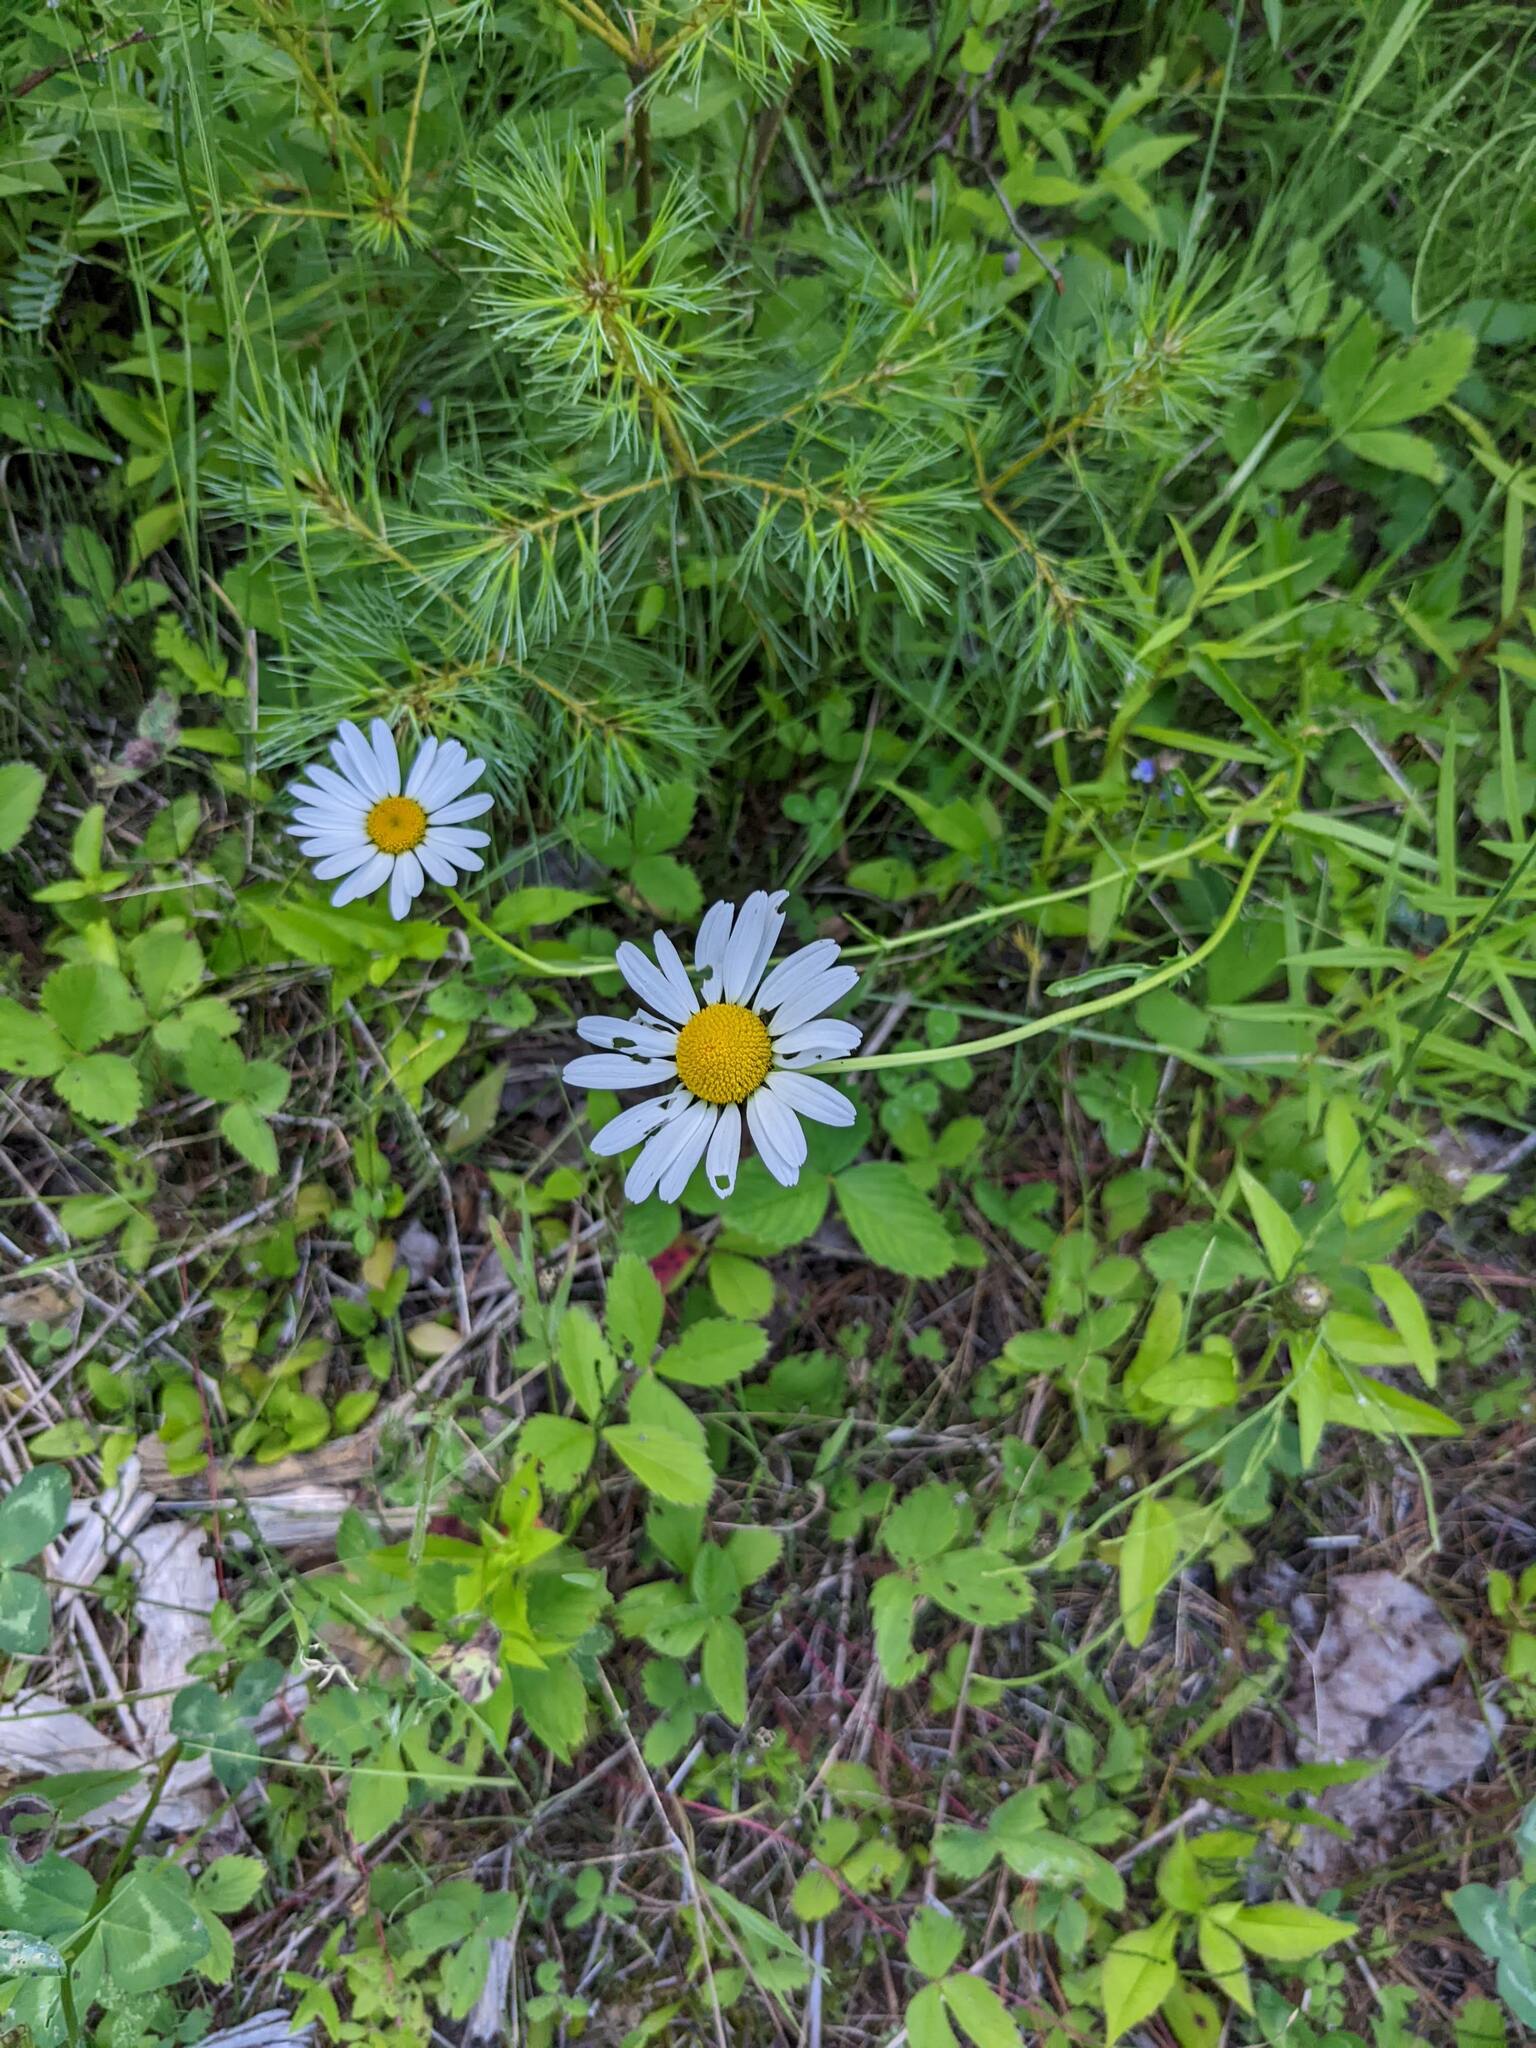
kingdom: Plantae
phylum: Tracheophyta
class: Pinopsida
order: Pinales
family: Pinaceae
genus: Pinus
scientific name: Pinus strobus
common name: Weymouth pine
